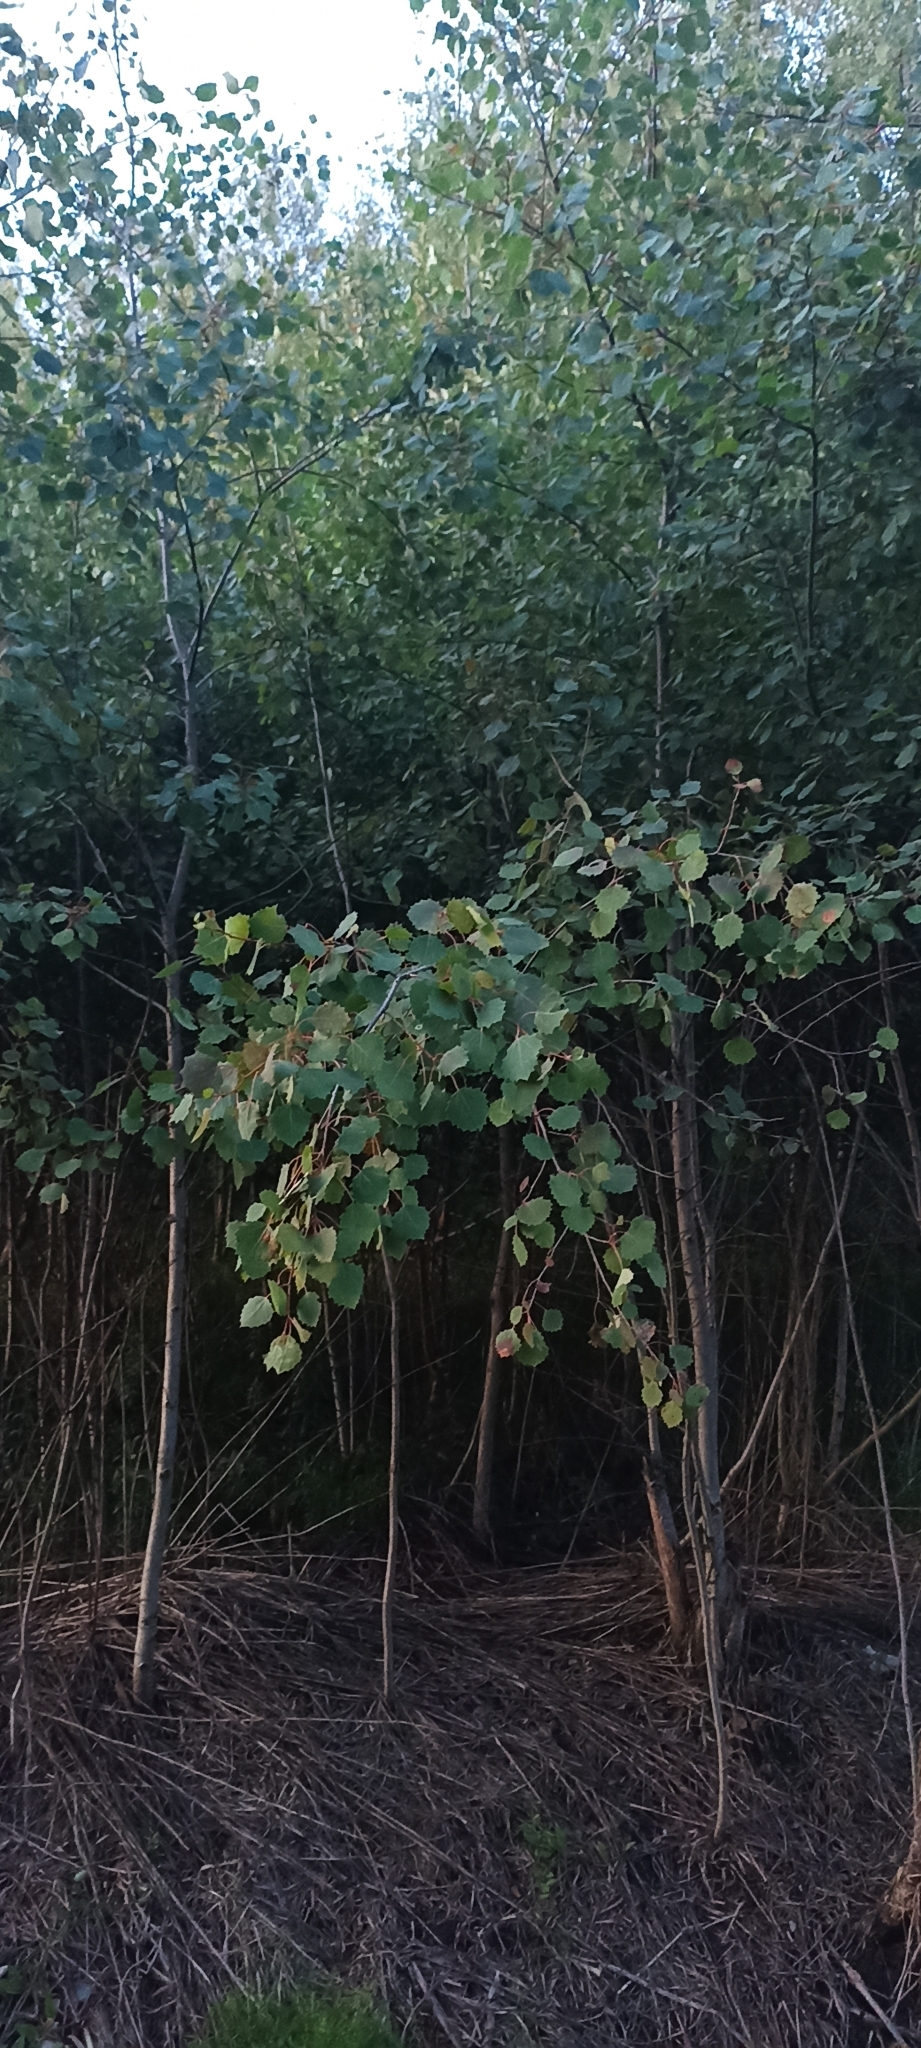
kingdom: Plantae
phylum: Tracheophyta
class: Magnoliopsida
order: Malpighiales
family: Salicaceae
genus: Populus
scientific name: Populus tremula
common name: European aspen
